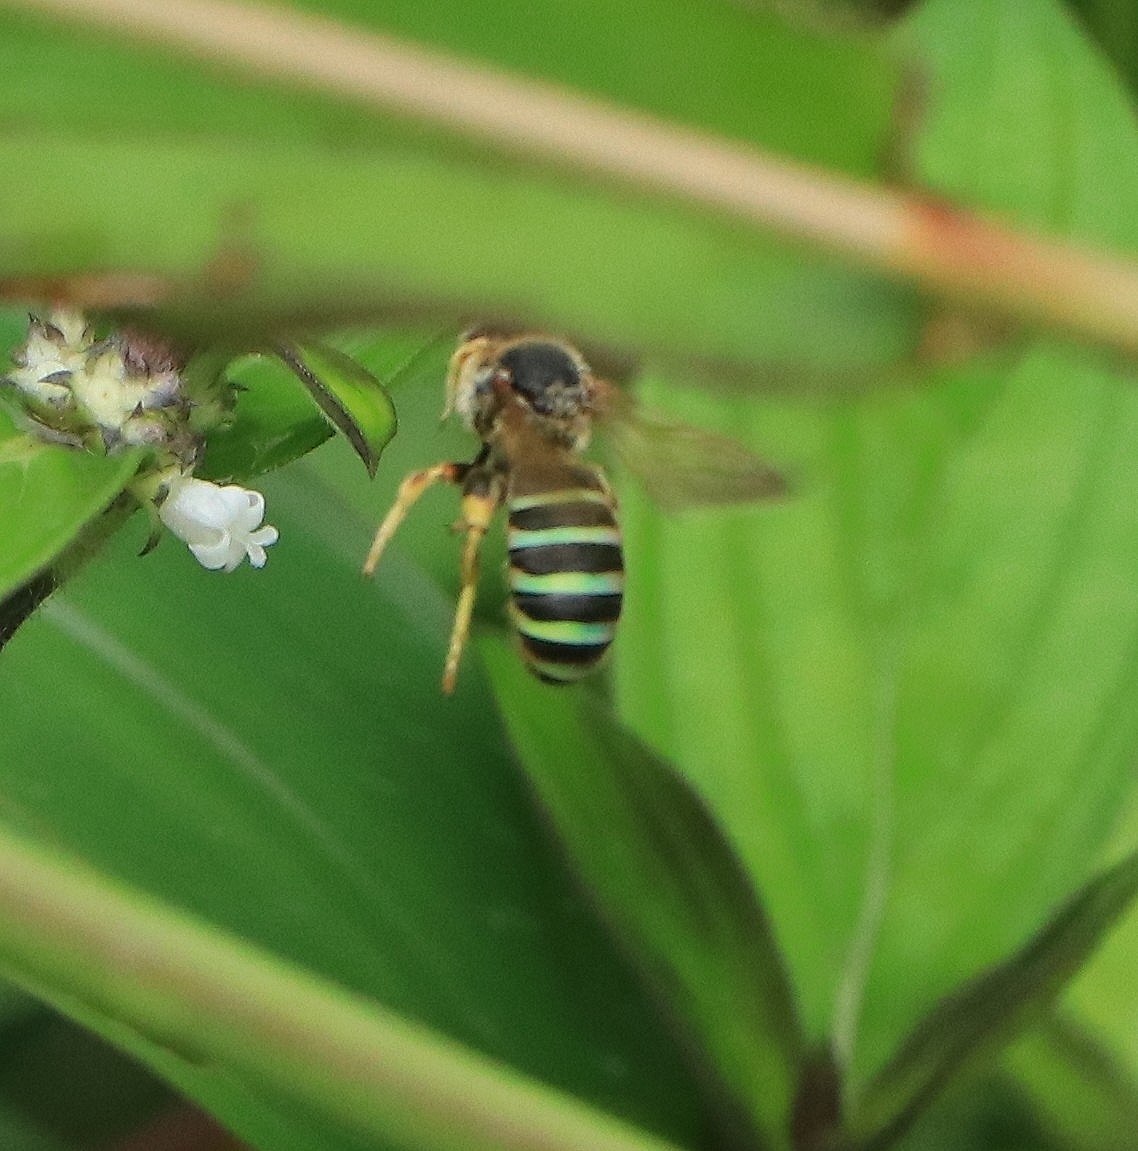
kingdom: Animalia
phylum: Arthropoda
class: Insecta
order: Hymenoptera
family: Halictidae
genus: Nomia
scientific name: Nomia curvipes
